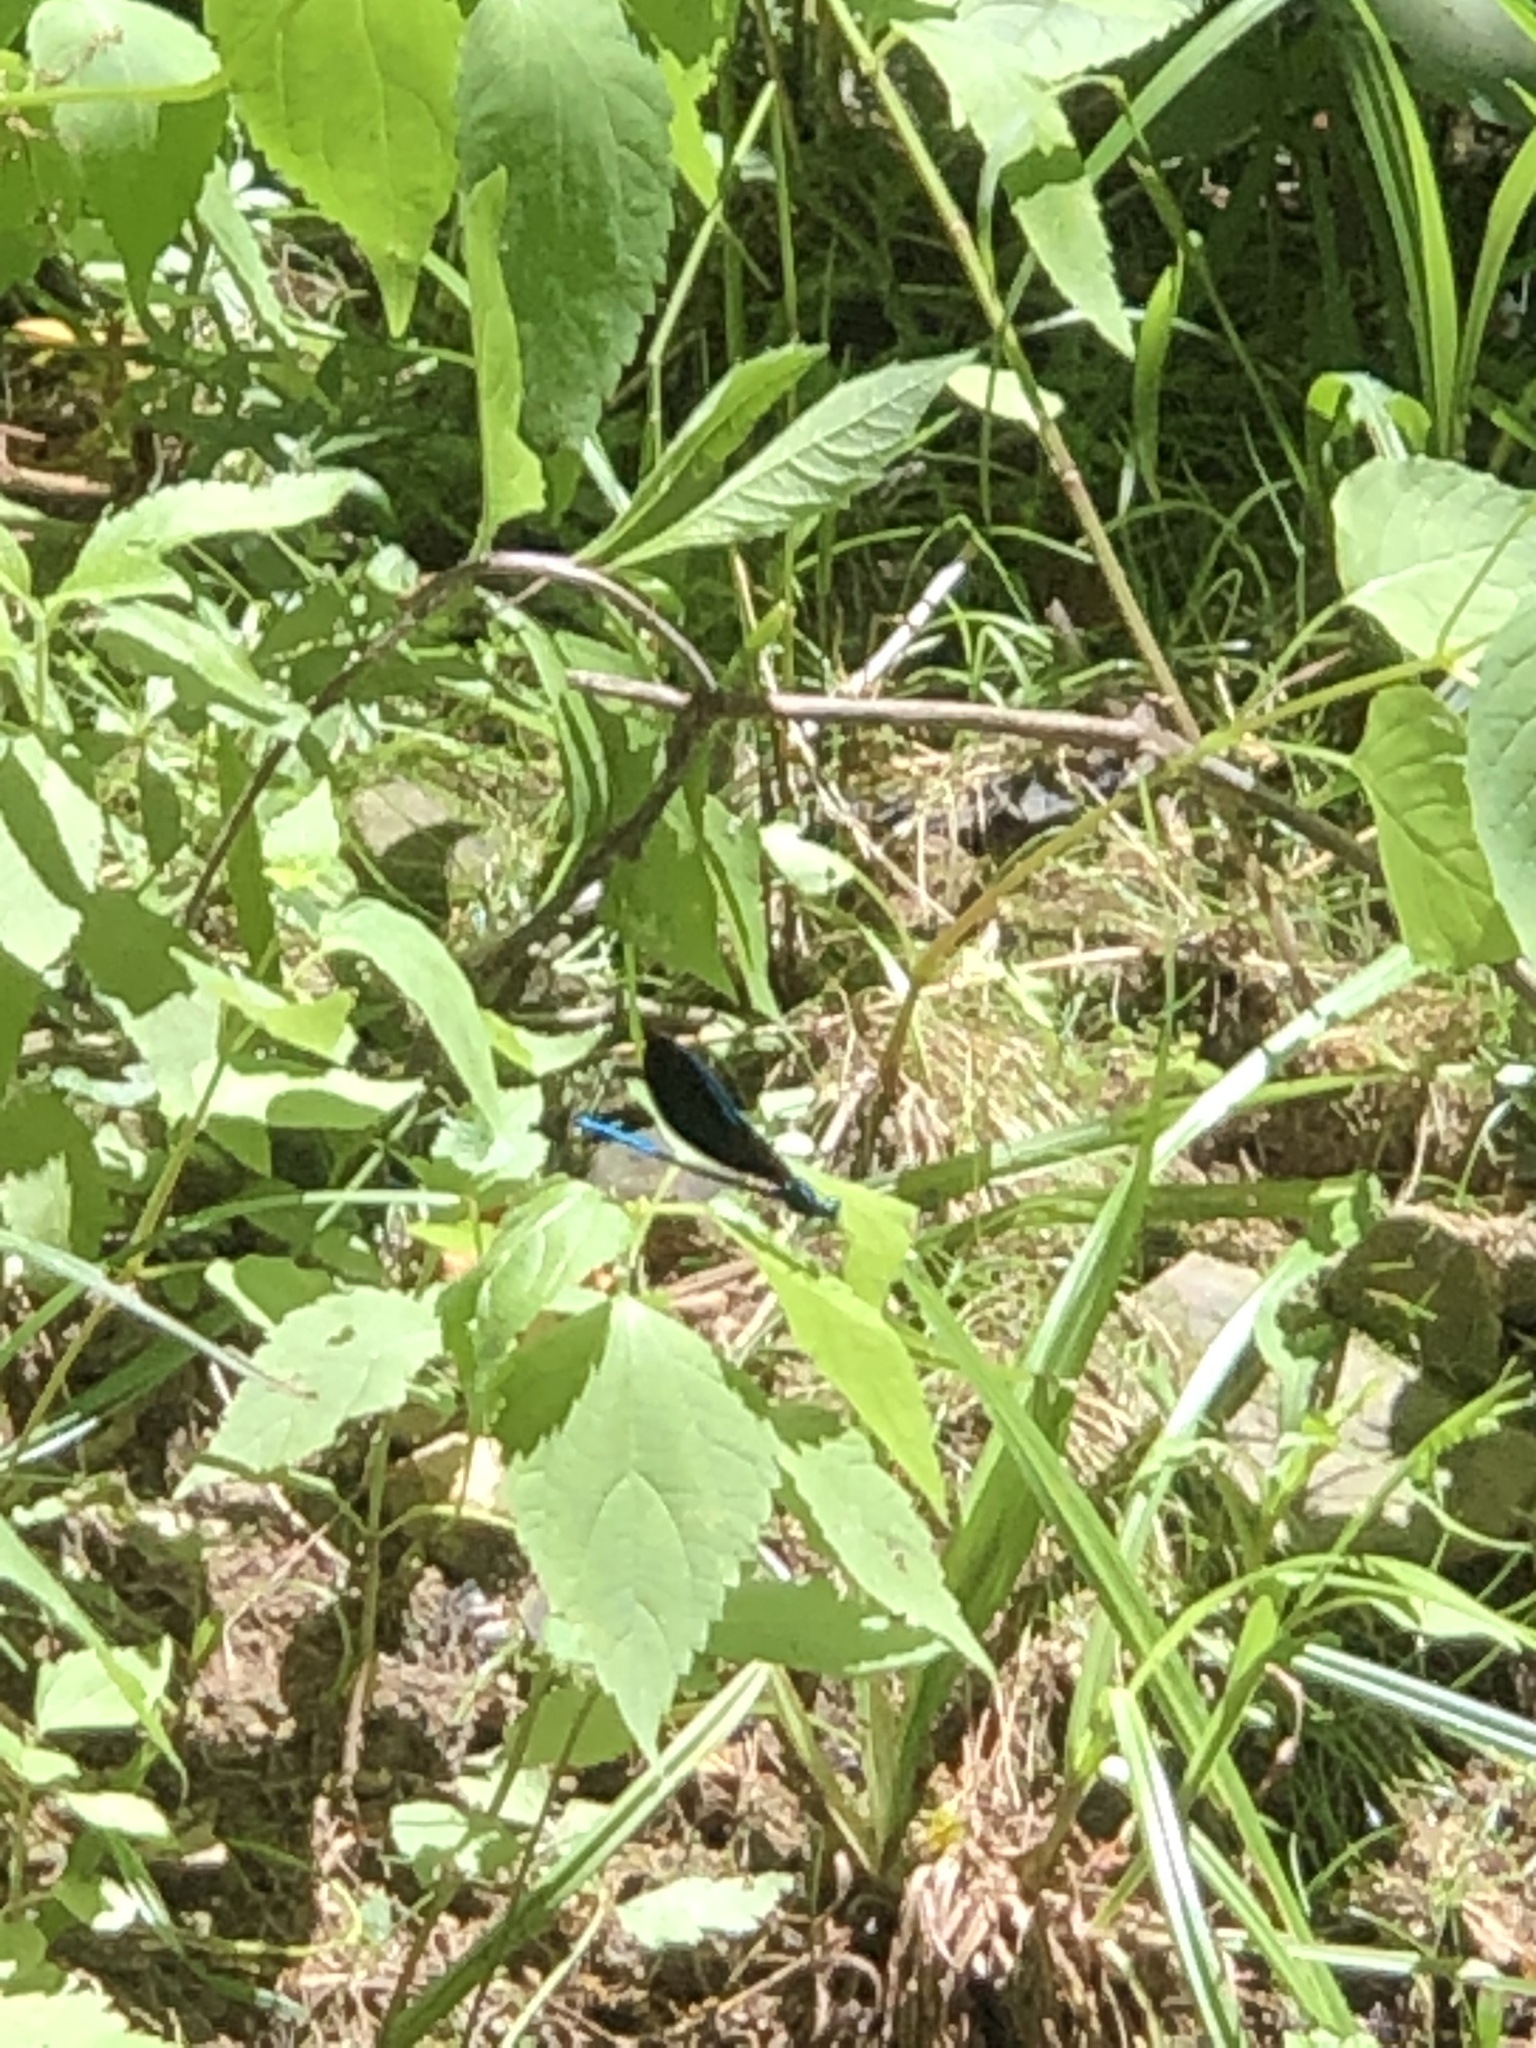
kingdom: Animalia
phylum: Arthropoda
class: Insecta
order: Odonata
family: Calopterygidae
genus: Calopteryx
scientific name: Calopteryx maculata
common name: Ebony jewelwing
